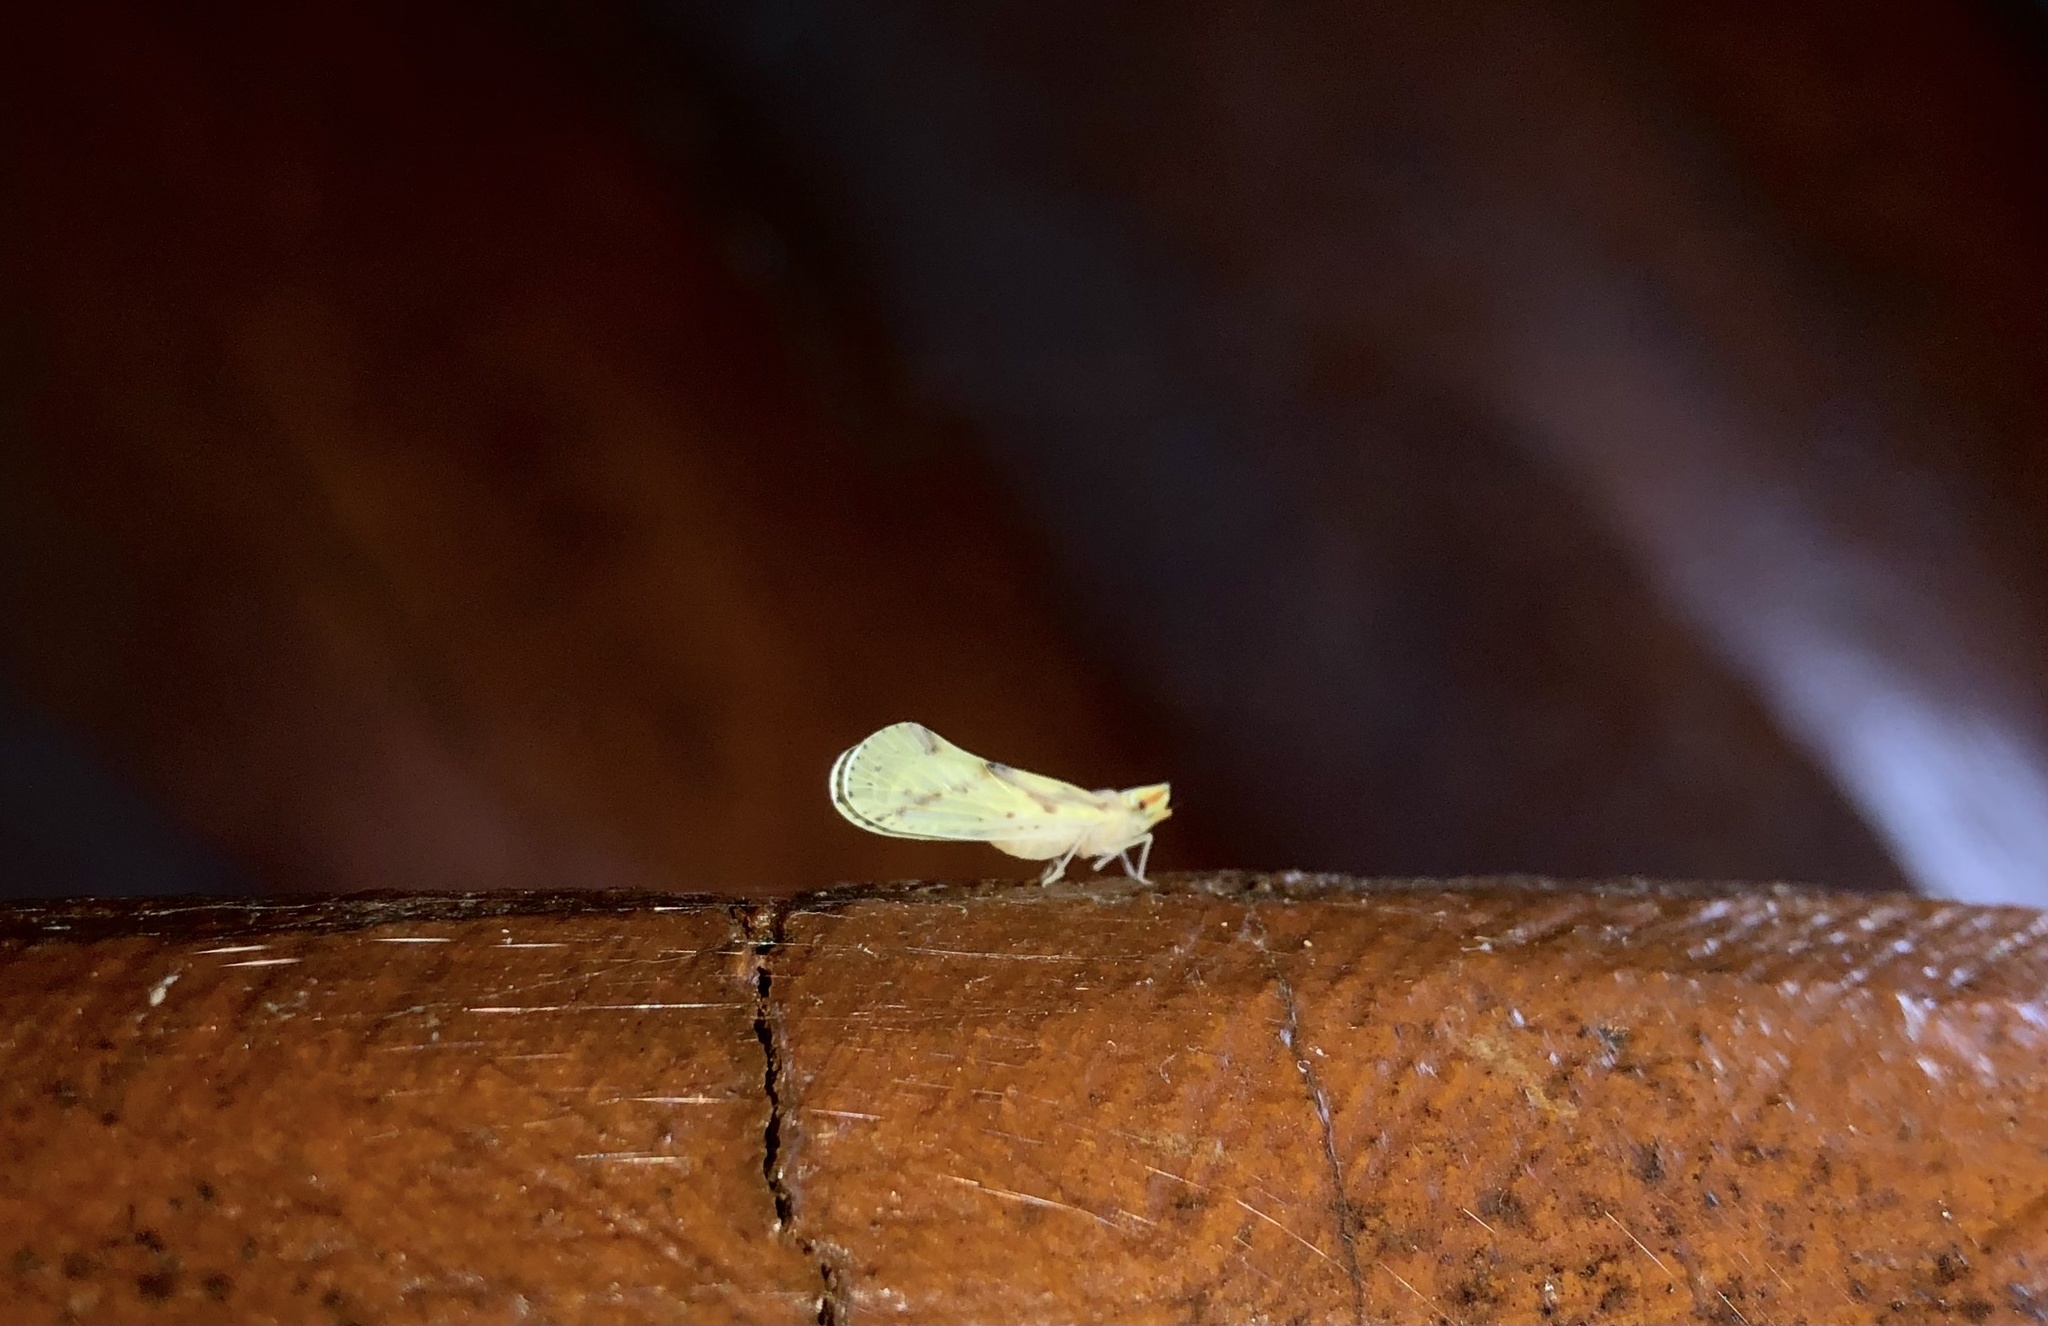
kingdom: Animalia
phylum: Arthropoda
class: Insecta
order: Hemiptera
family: Derbidae
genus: Otiocerus
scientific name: Otiocerus wolfii
